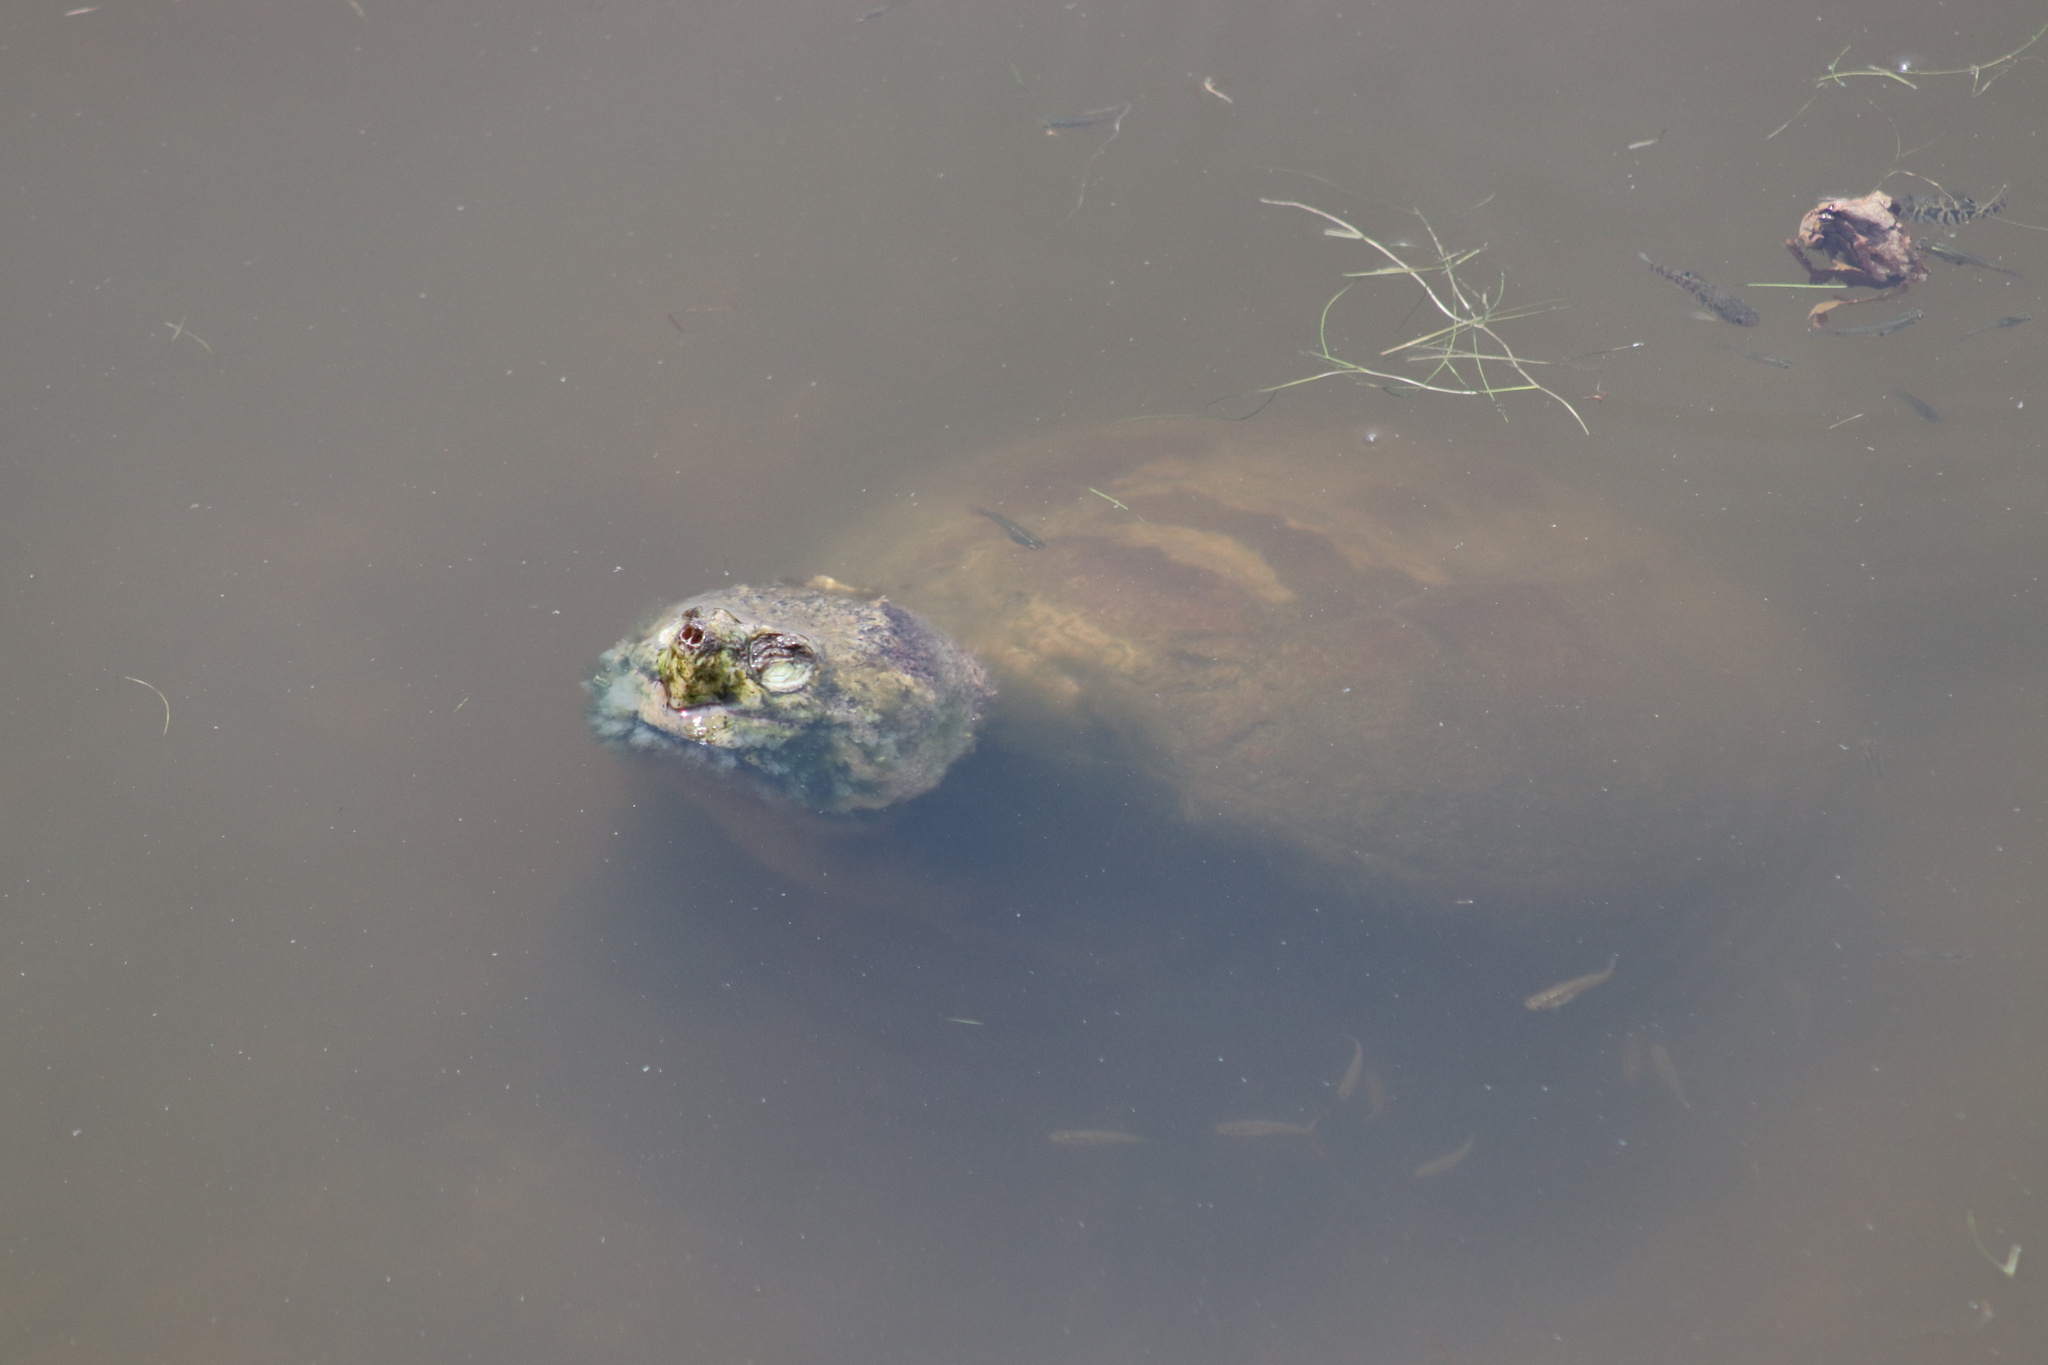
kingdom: Animalia
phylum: Chordata
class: Testudines
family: Chelydridae
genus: Chelydra
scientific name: Chelydra serpentina
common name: Common snapping turtle
